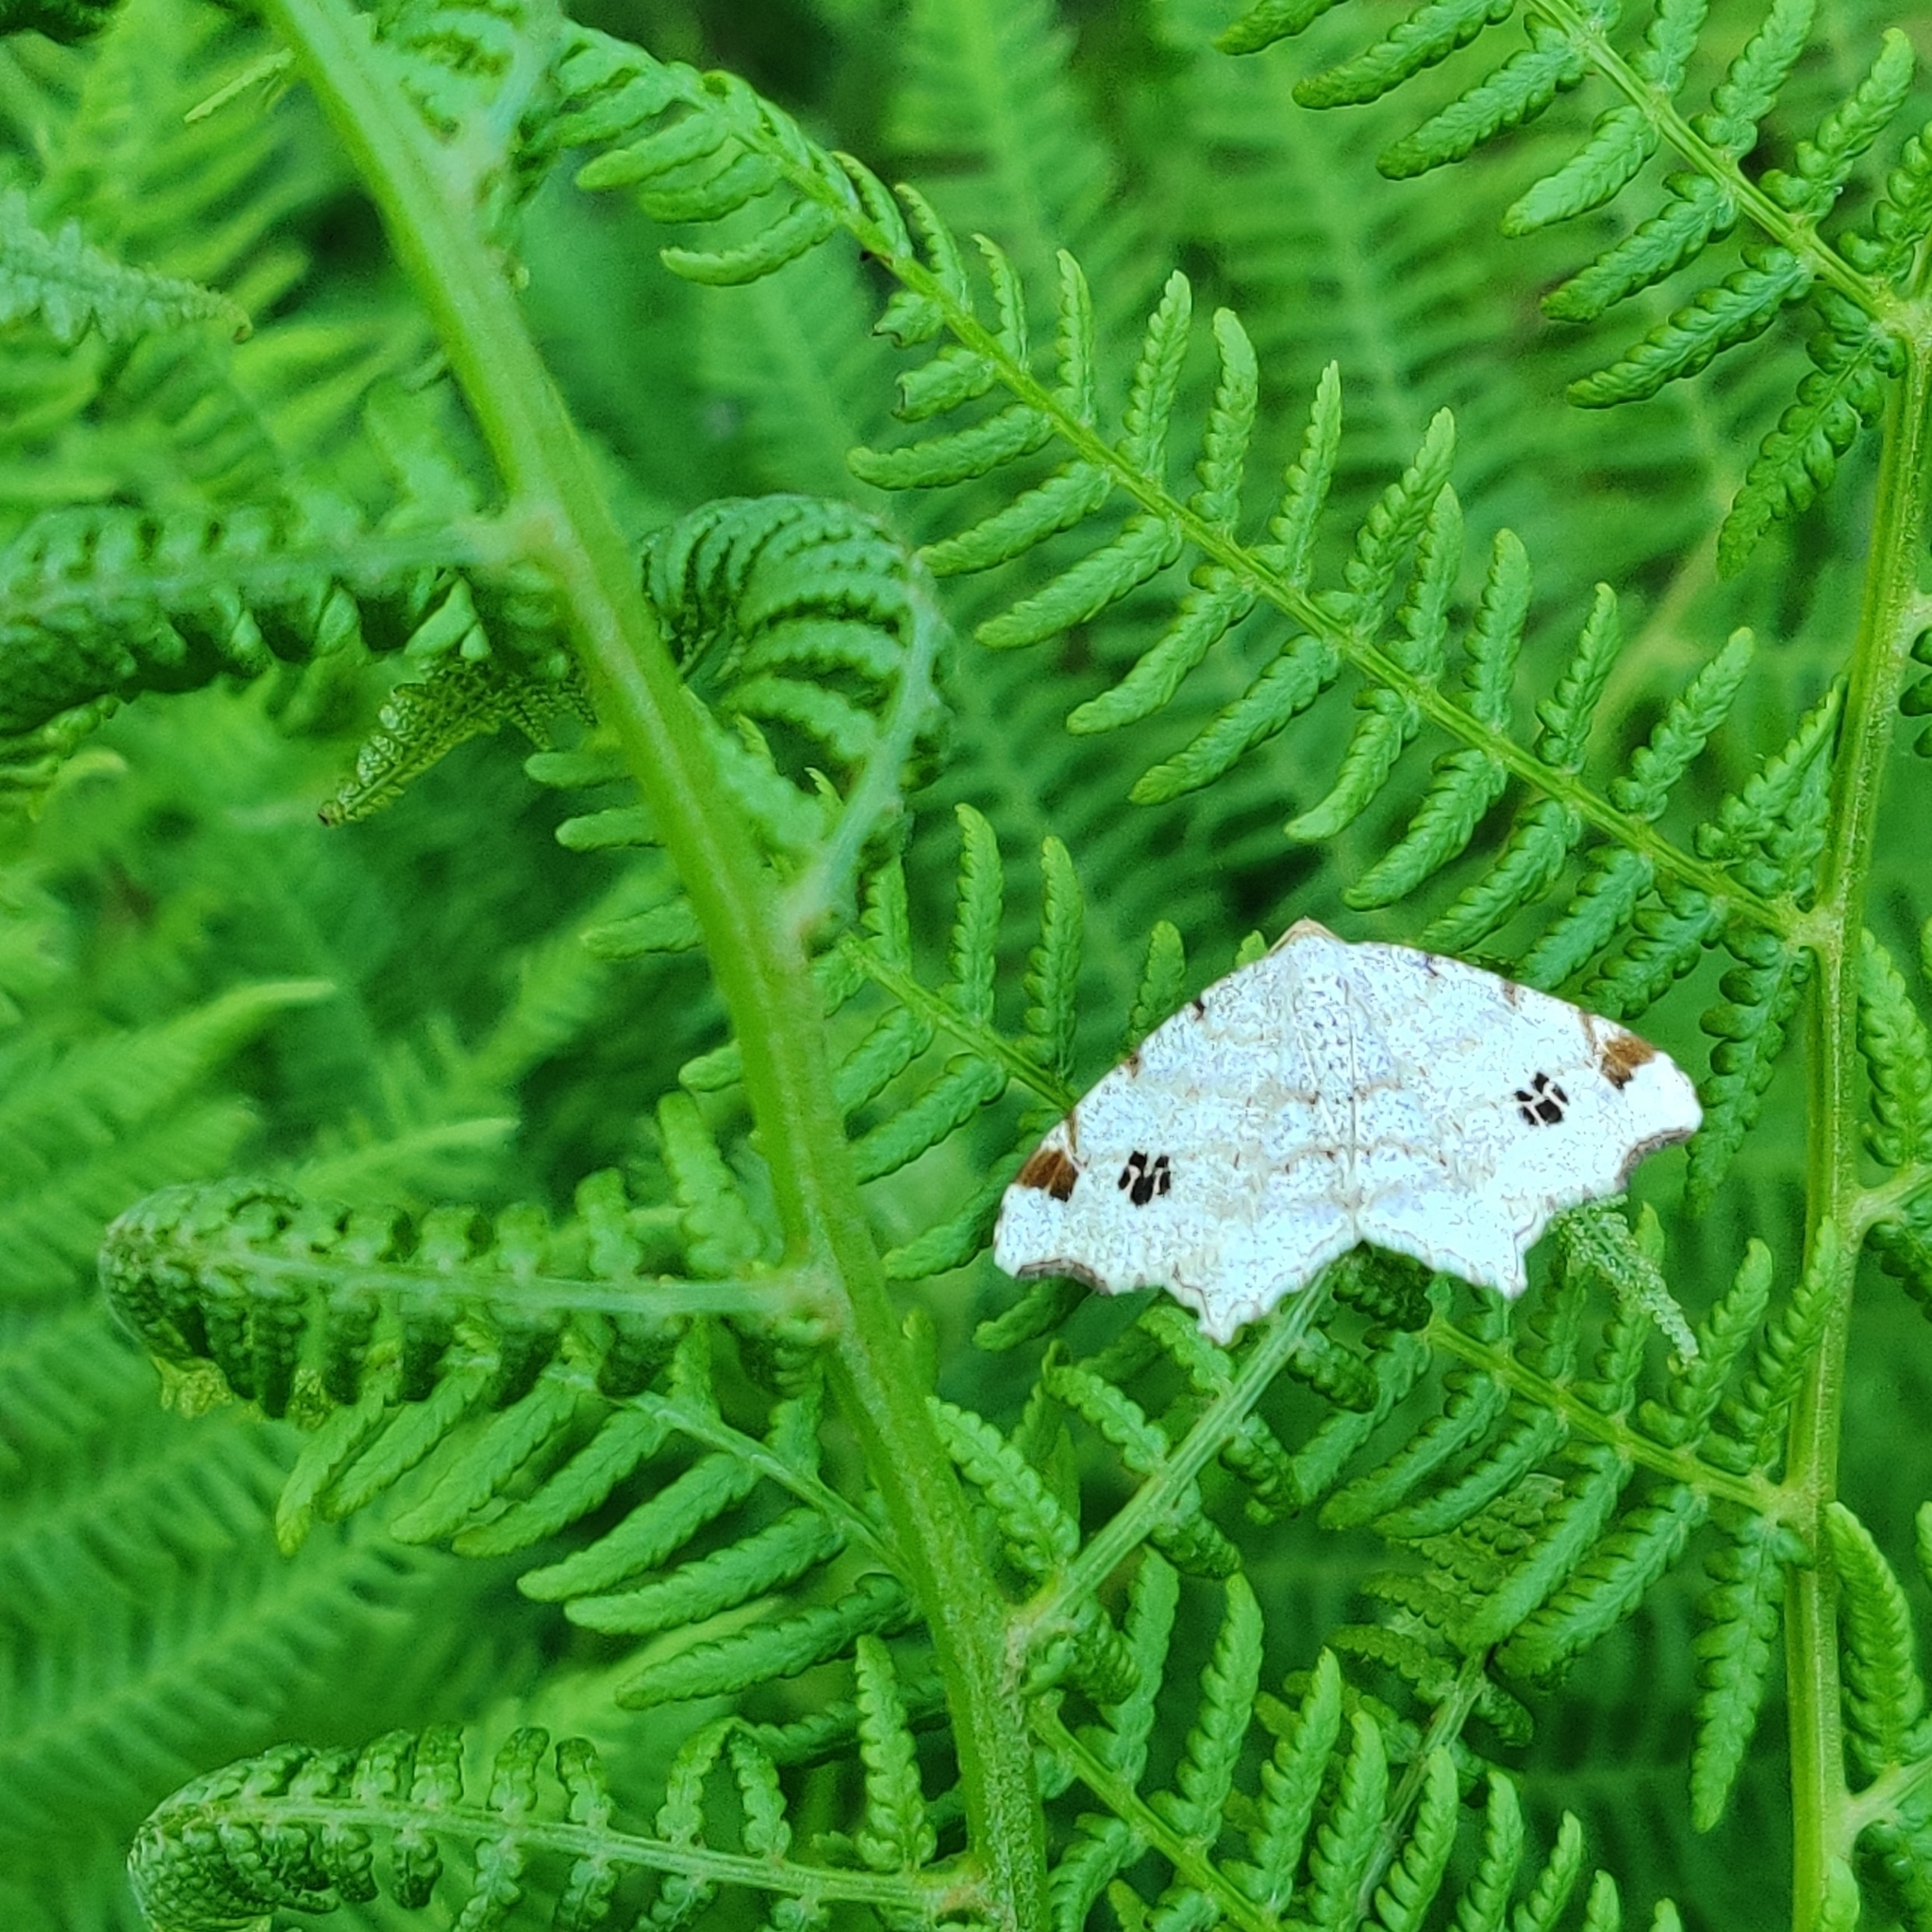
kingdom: Animalia
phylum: Arthropoda
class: Insecta
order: Lepidoptera
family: Geometridae
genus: Macaria
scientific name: Macaria notata
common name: Peacock moth
